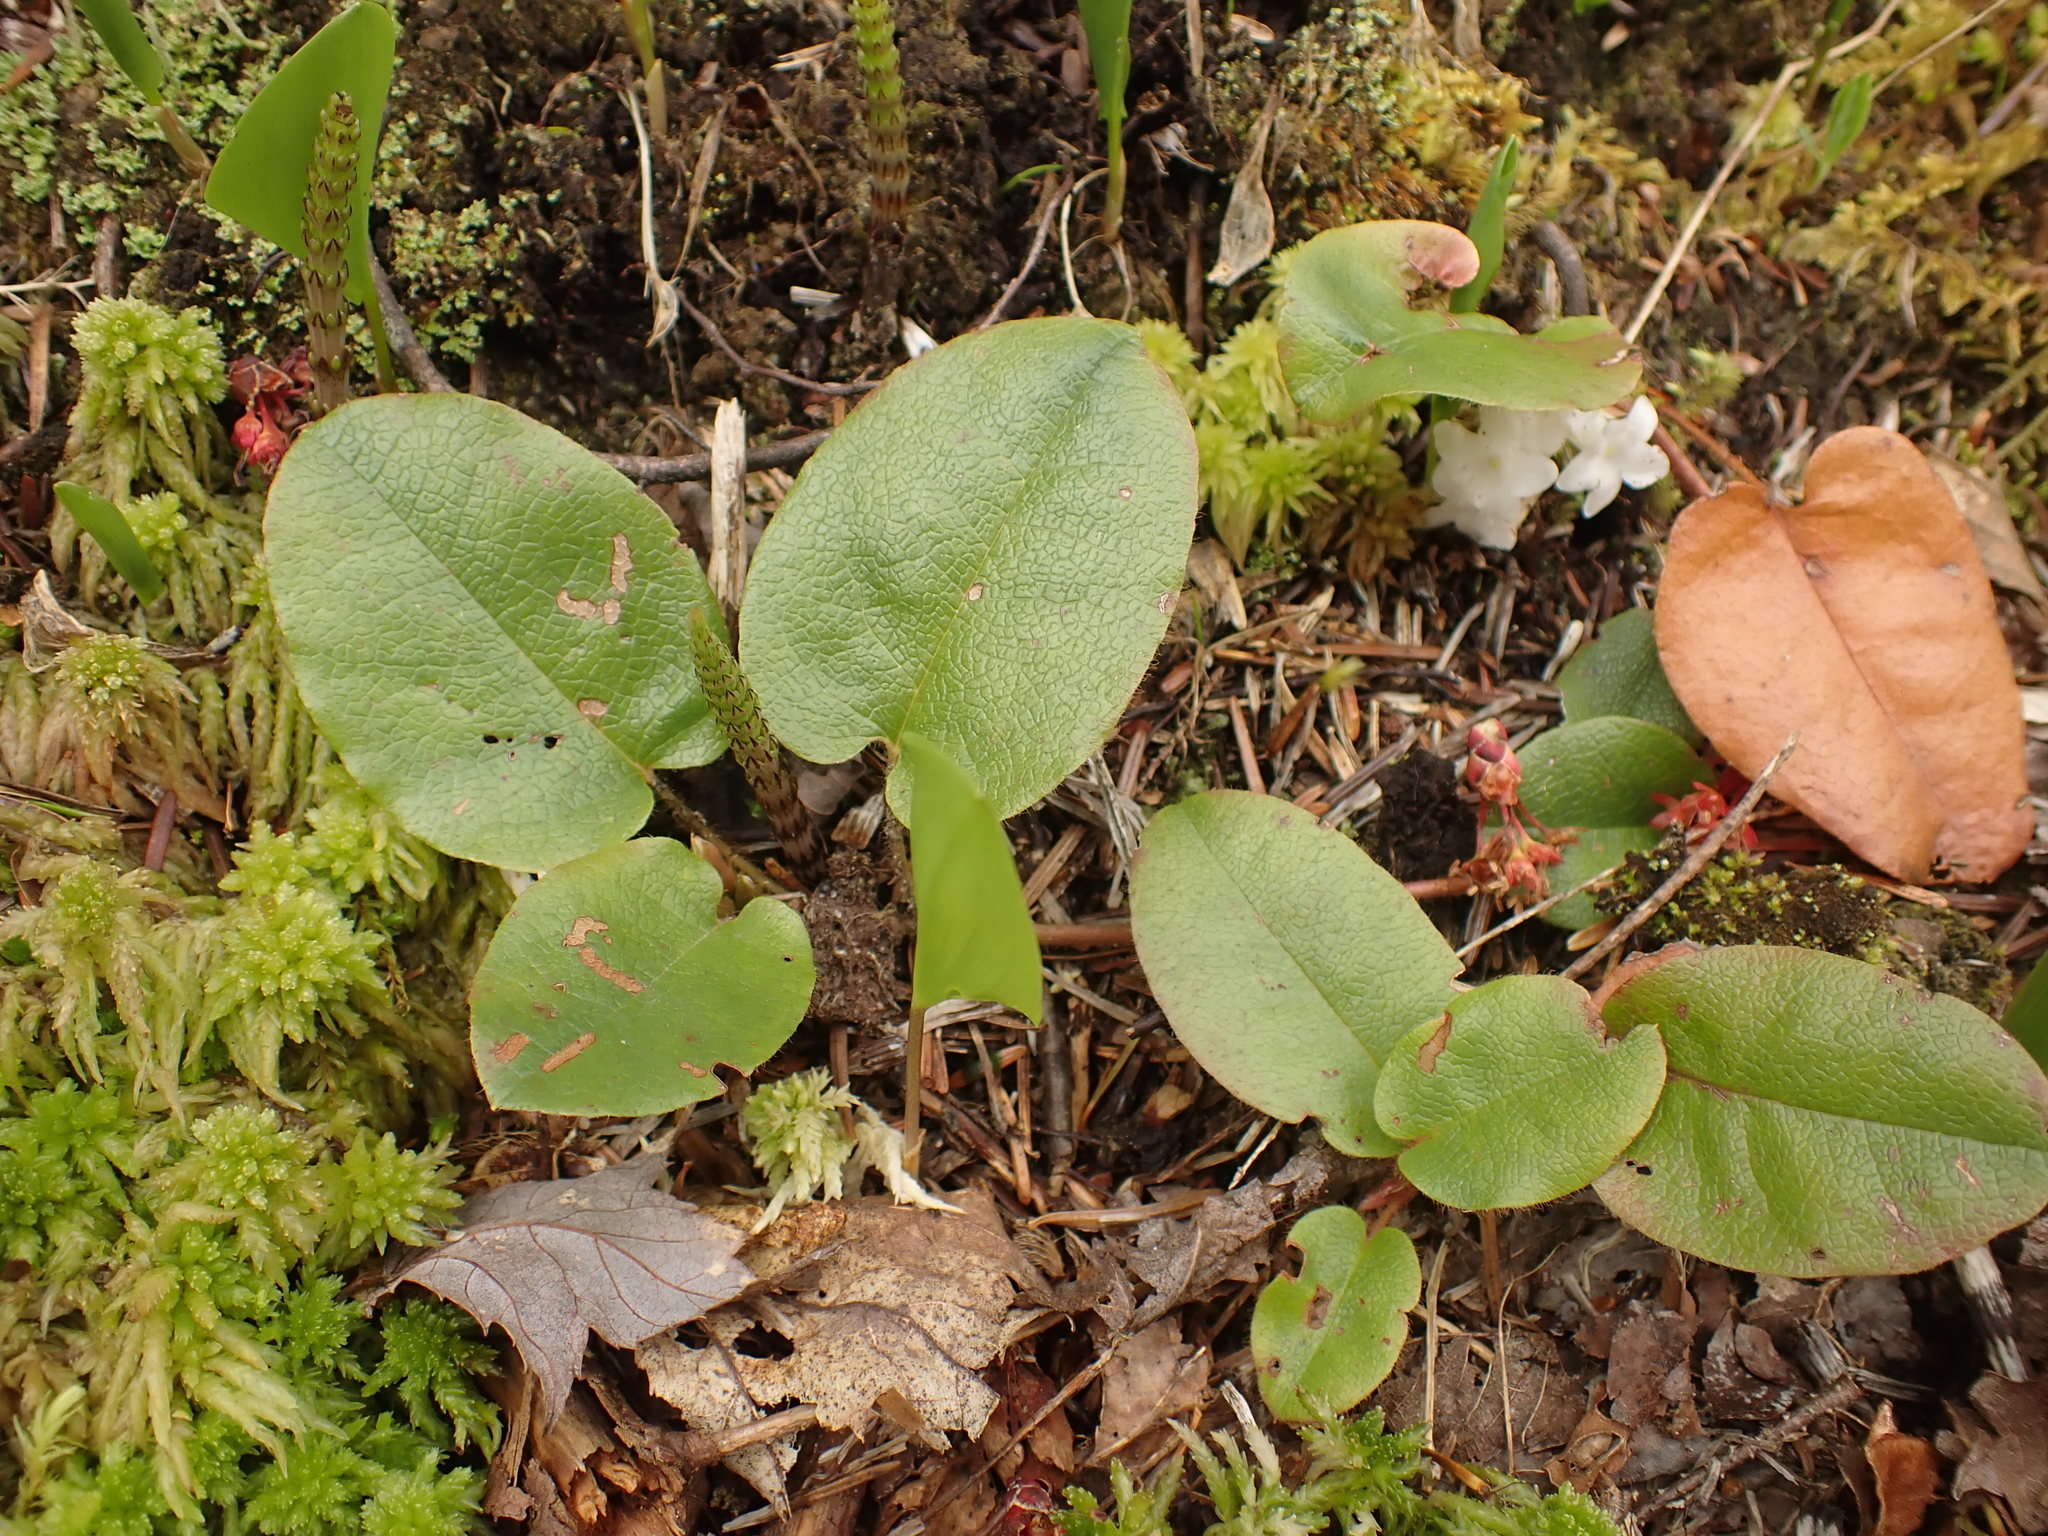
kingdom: Plantae
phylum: Tracheophyta
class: Magnoliopsida
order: Ericales
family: Ericaceae
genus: Epigaea
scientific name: Epigaea repens
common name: Gravelroot
